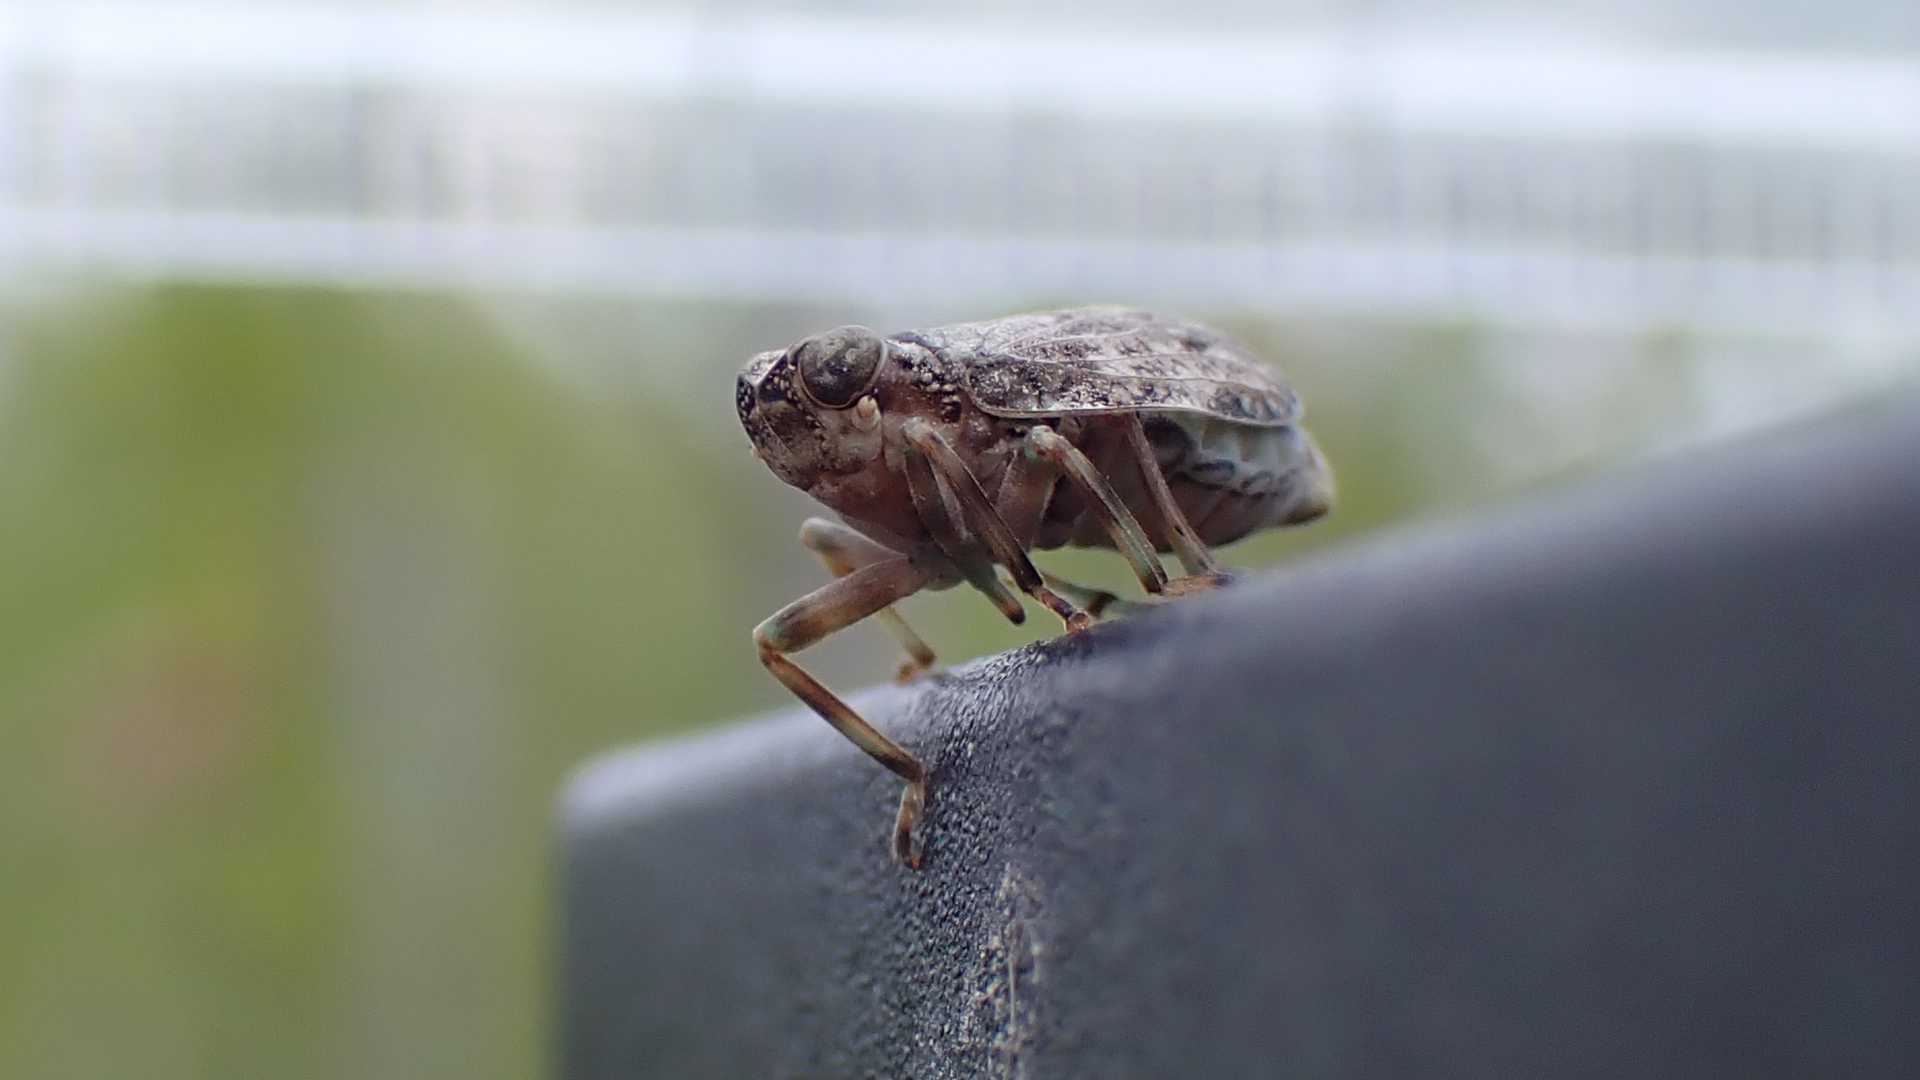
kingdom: Animalia
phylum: Arthropoda
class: Insecta
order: Hemiptera
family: Issidae
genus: Issus
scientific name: Issus coleoptratus
